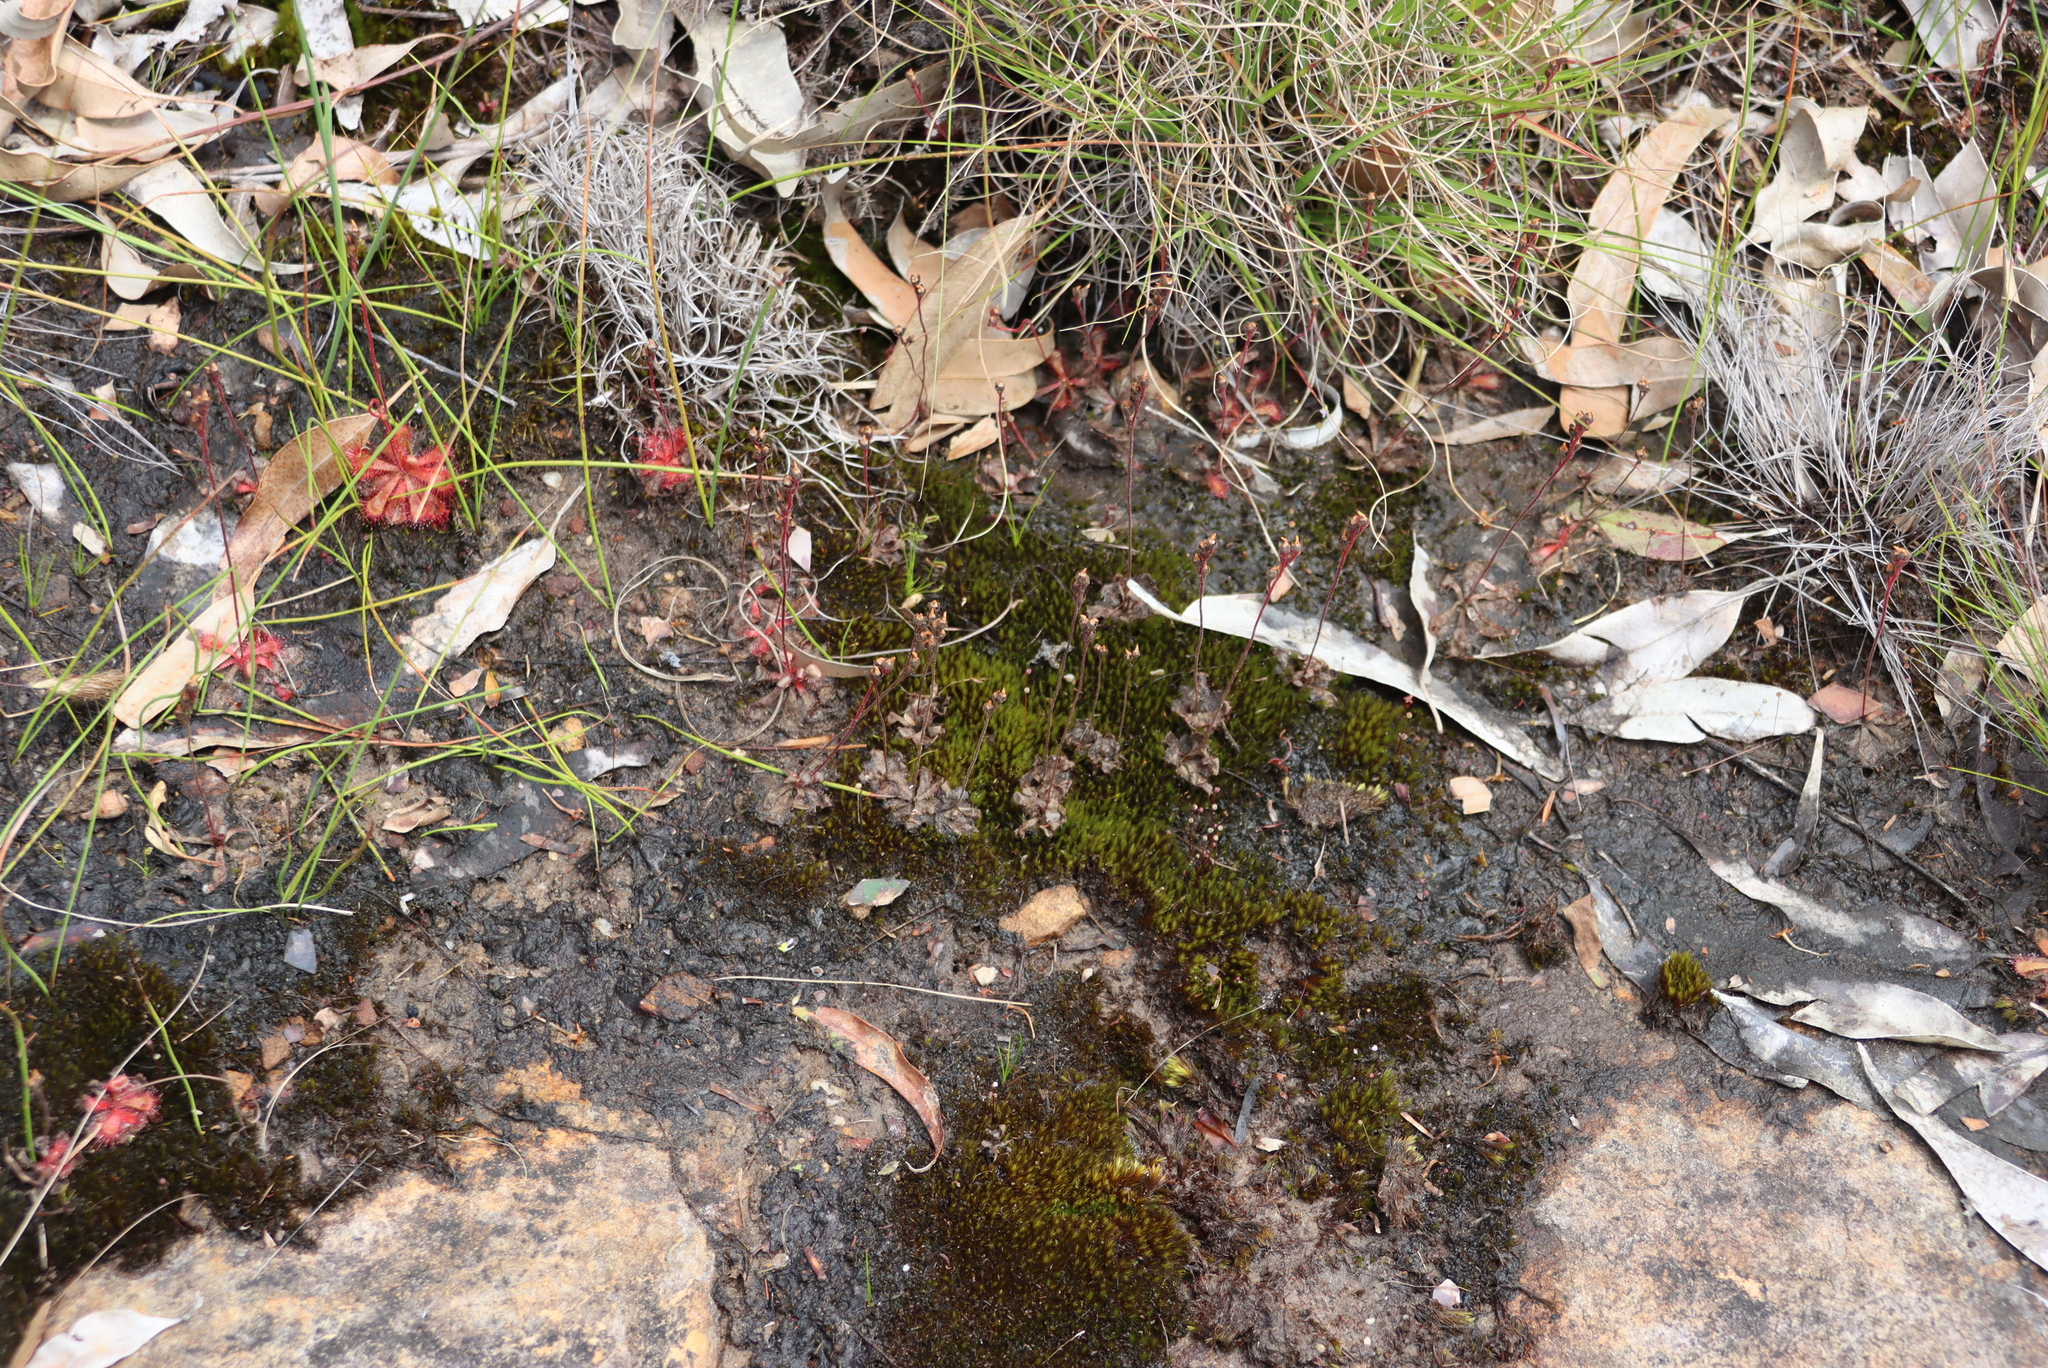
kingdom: Plantae
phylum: Tracheophyta
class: Magnoliopsida
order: Caryophyllales
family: Droseraceae
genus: Drosera
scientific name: Drosera trinervia
